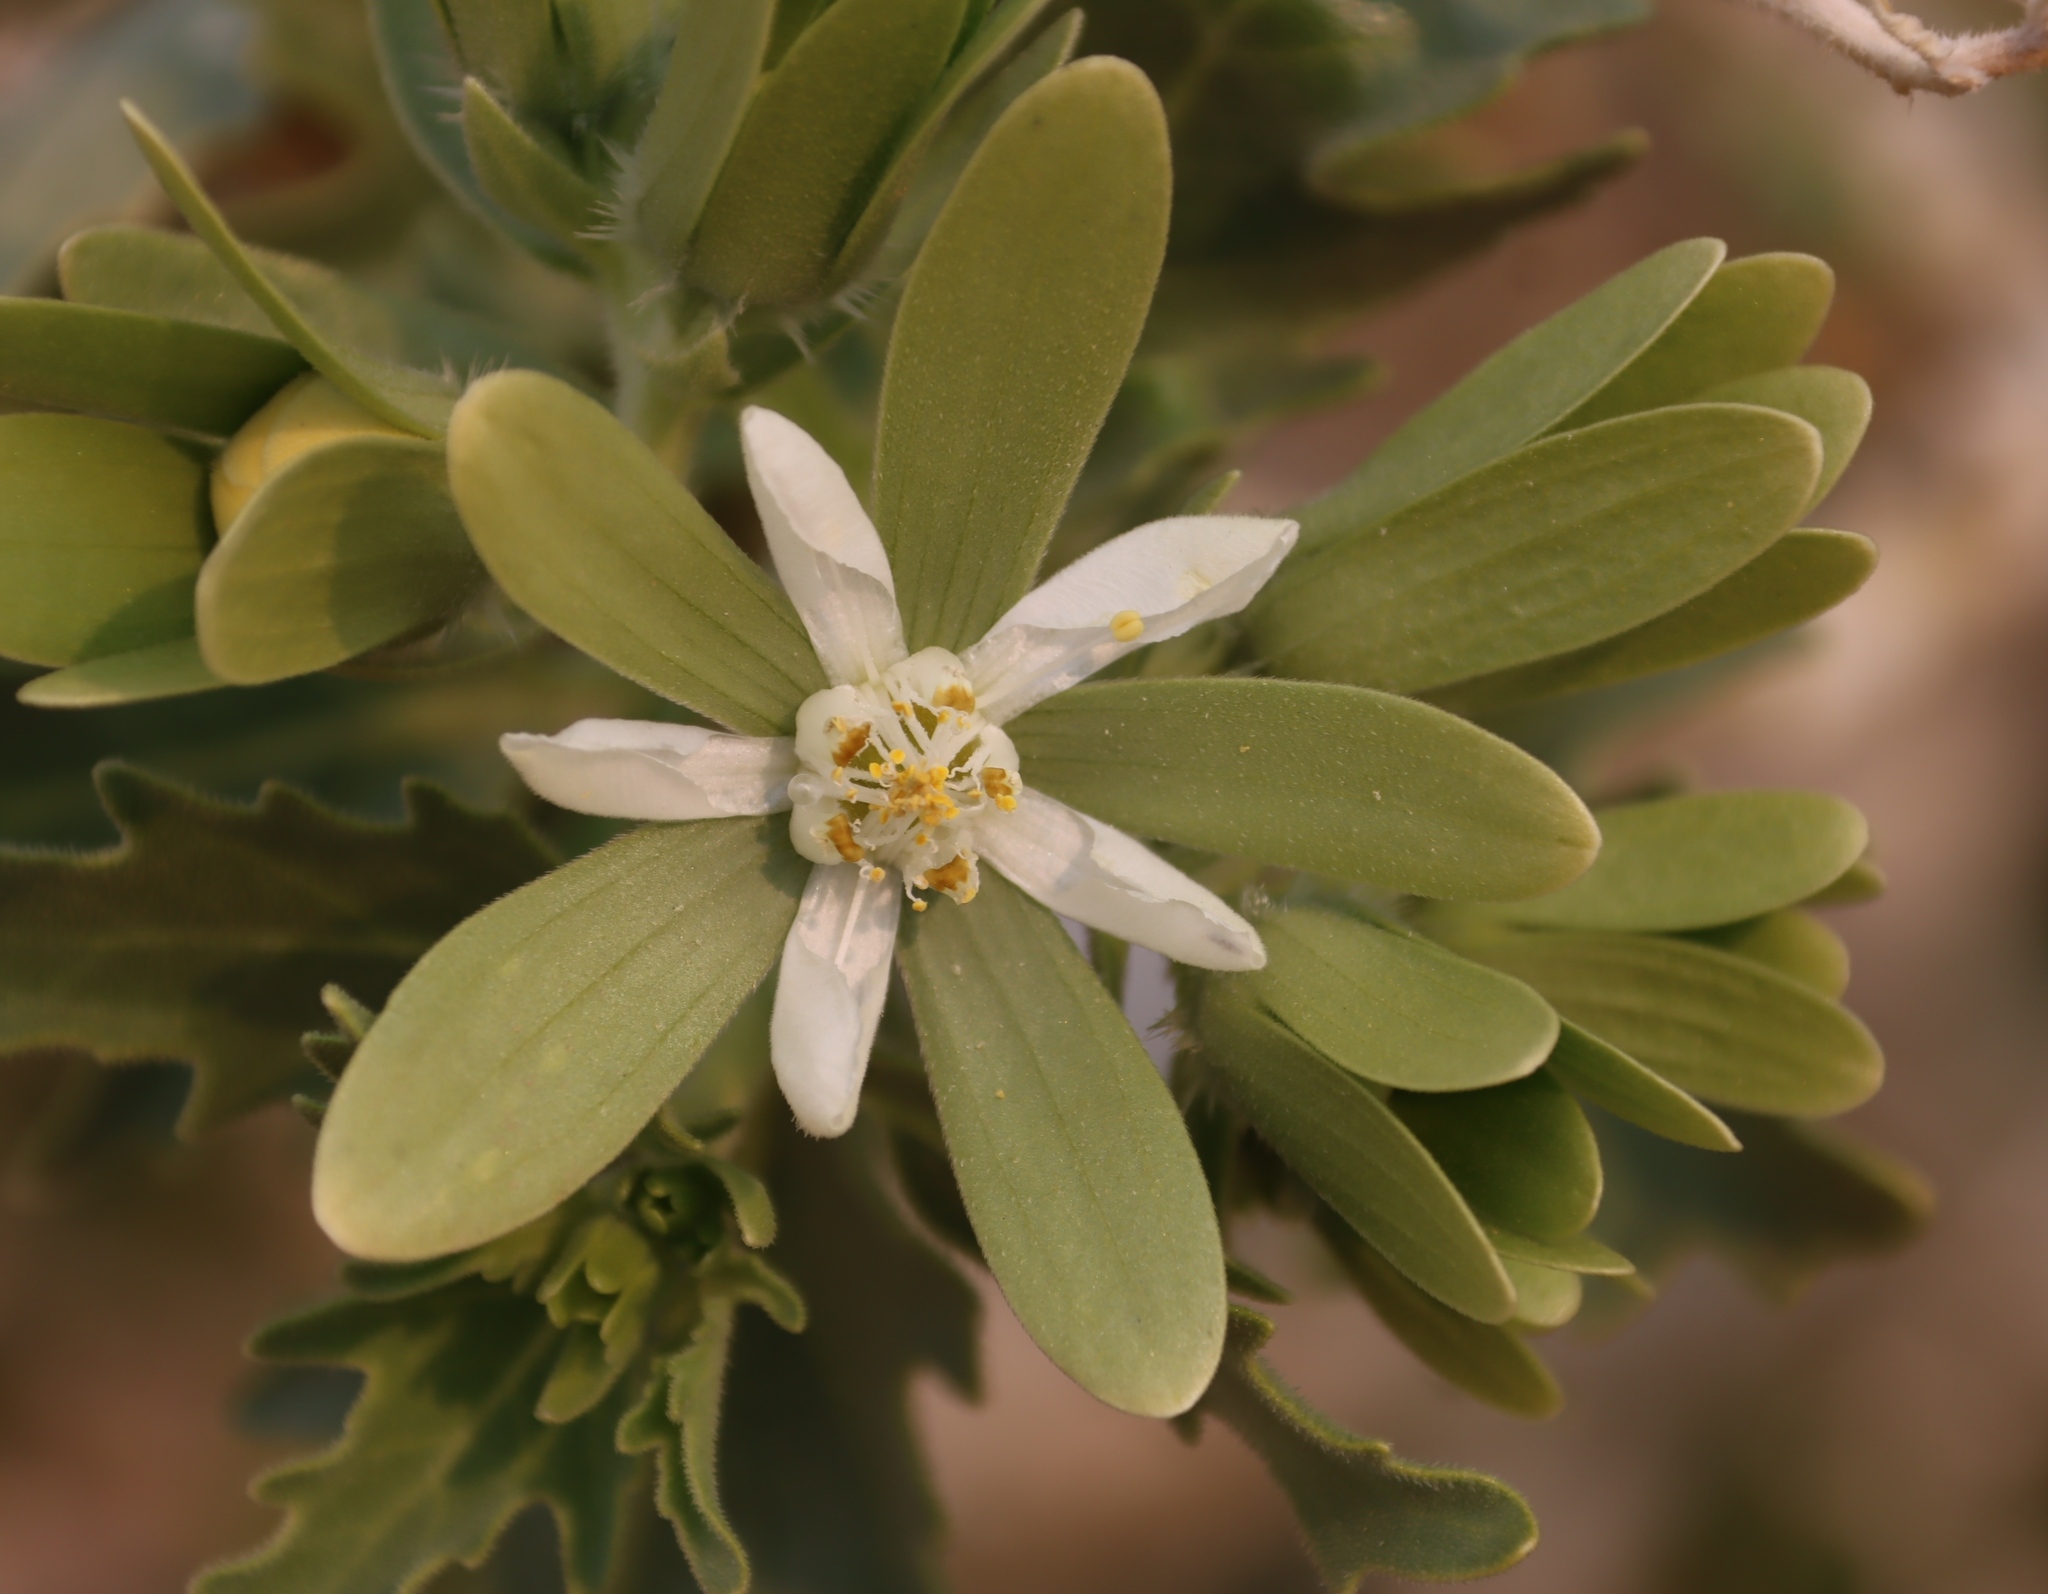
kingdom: Plantae
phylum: Tracheophyta
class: Magnoliopsida
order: Cornales
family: Loasaceae
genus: Kissenia
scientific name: Kissenia capensis
